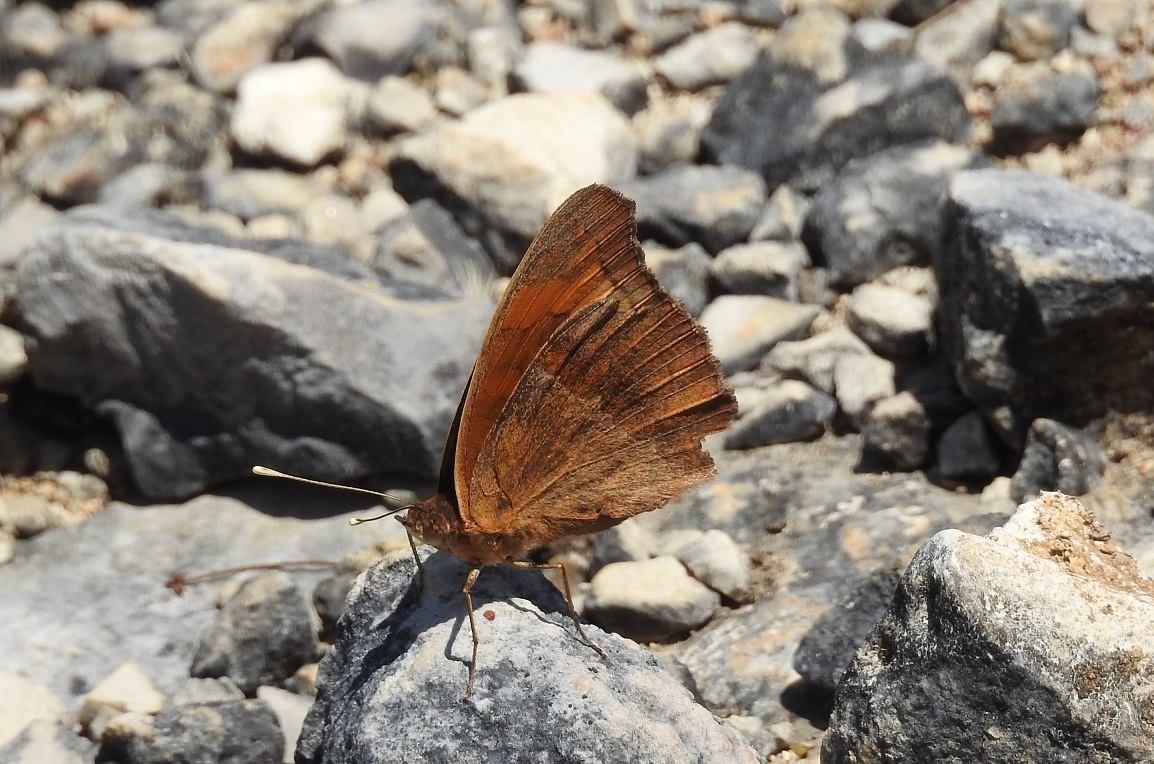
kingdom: Animalia
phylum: Arthropoda
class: Insecta
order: Lepidoptera
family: Nymphalidae
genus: Junonia
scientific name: Junonia lavinia
